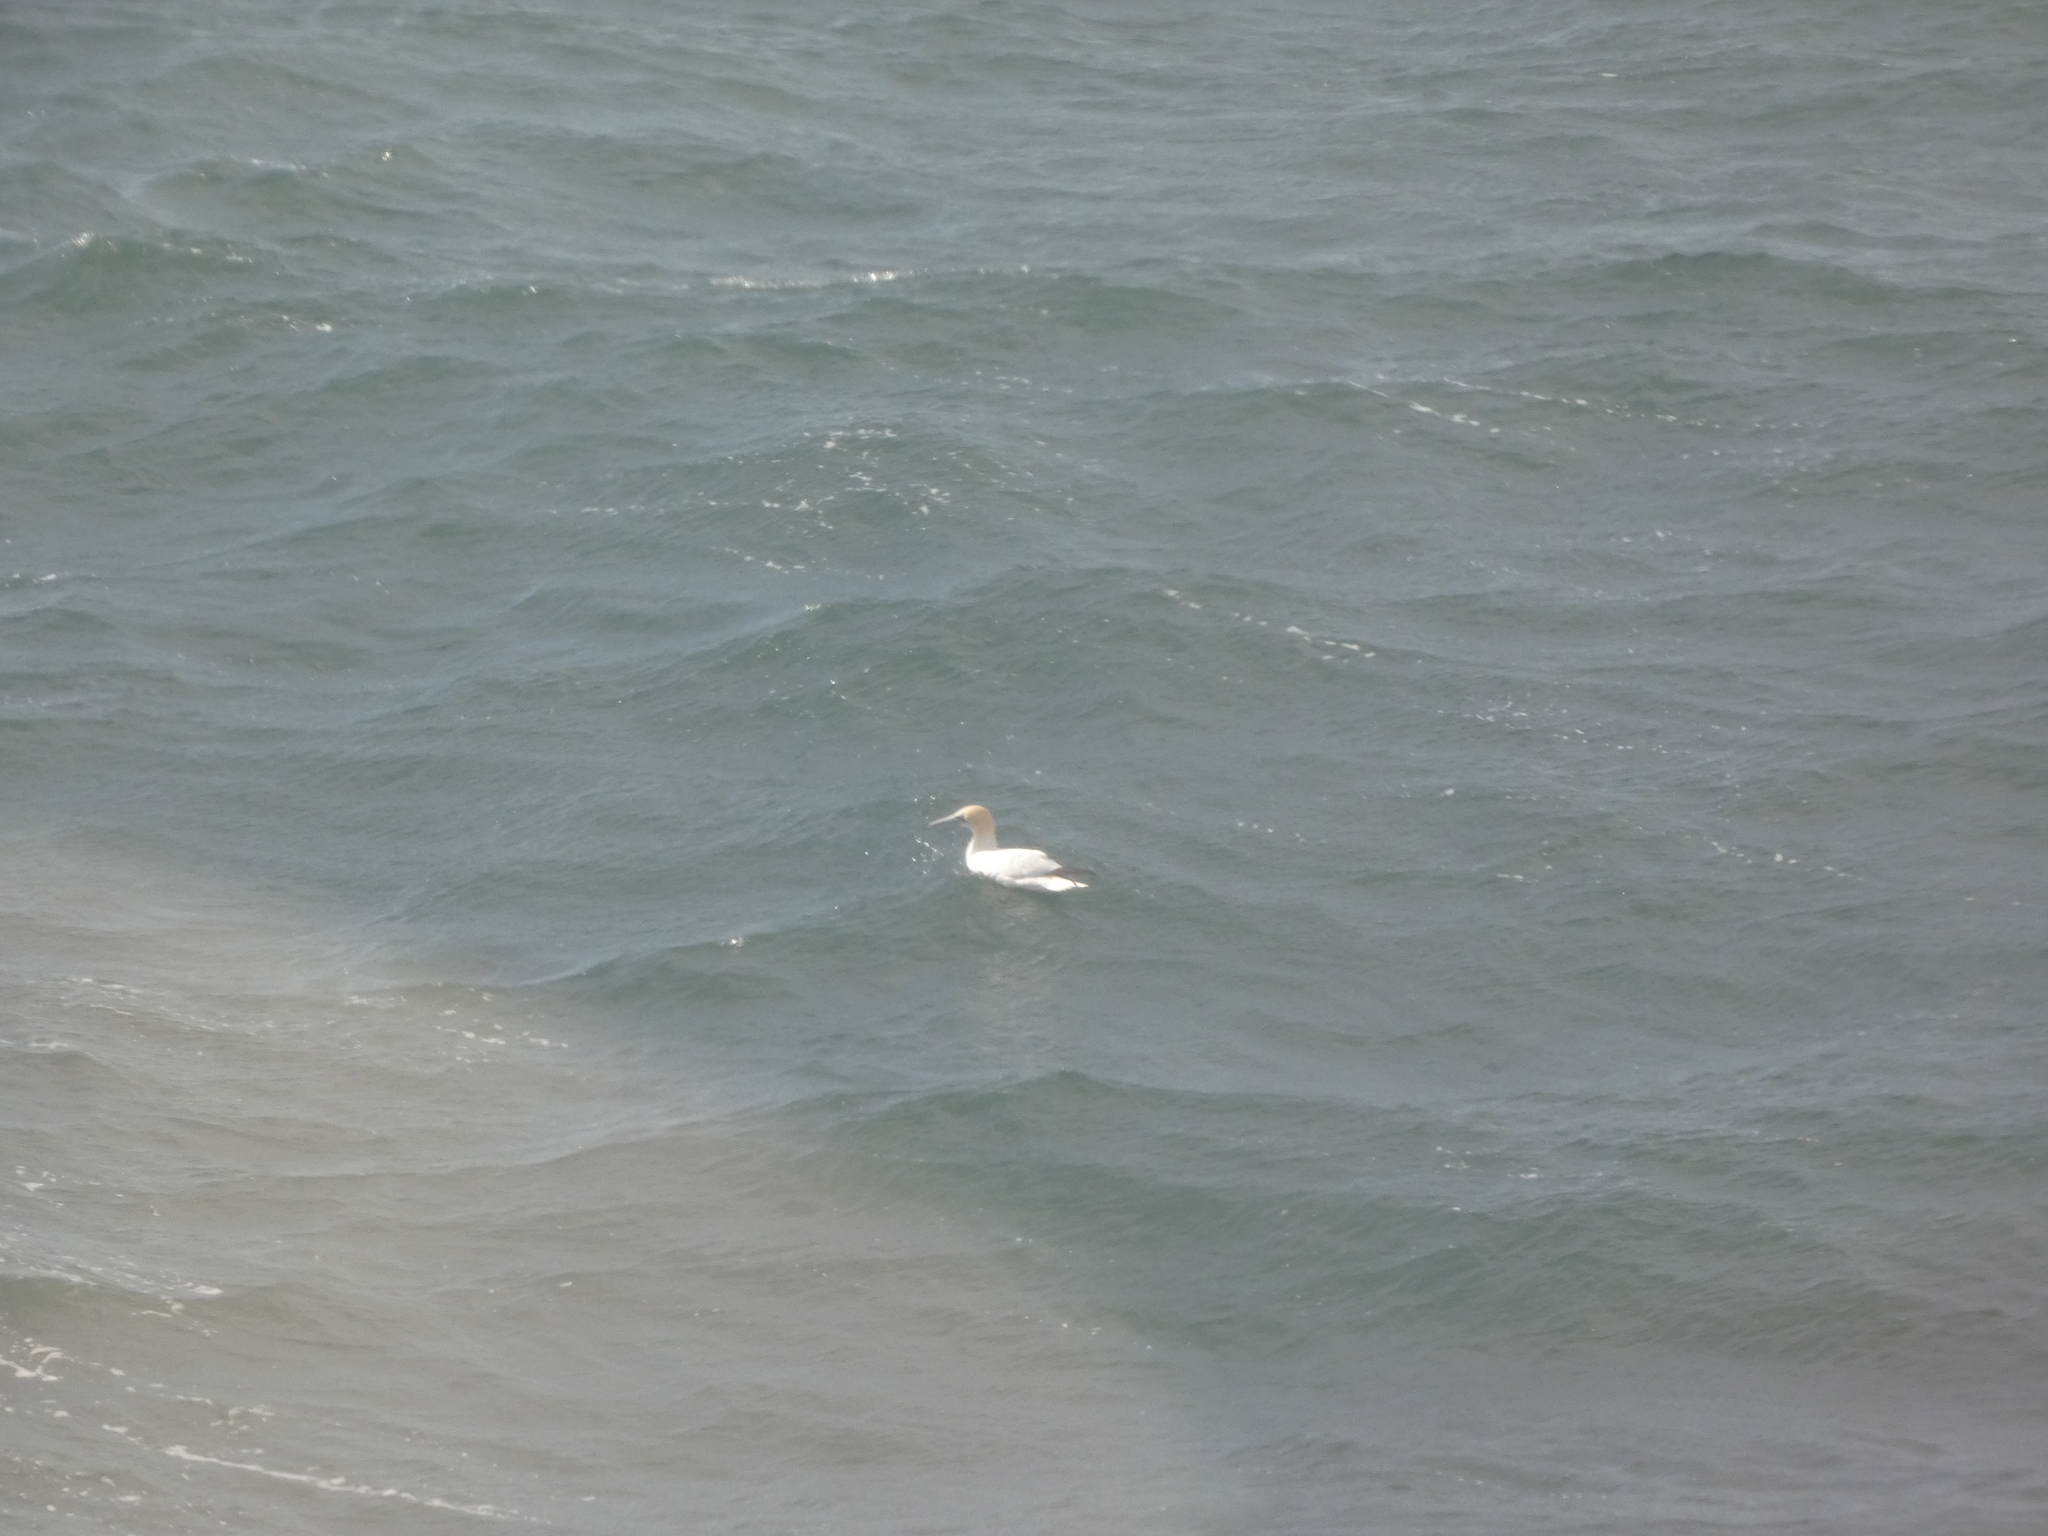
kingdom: Animalia
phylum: Chordata
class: Aves
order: Suliformes
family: Sulidae
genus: Morus
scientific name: Morus bassanus
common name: Northern gannet
